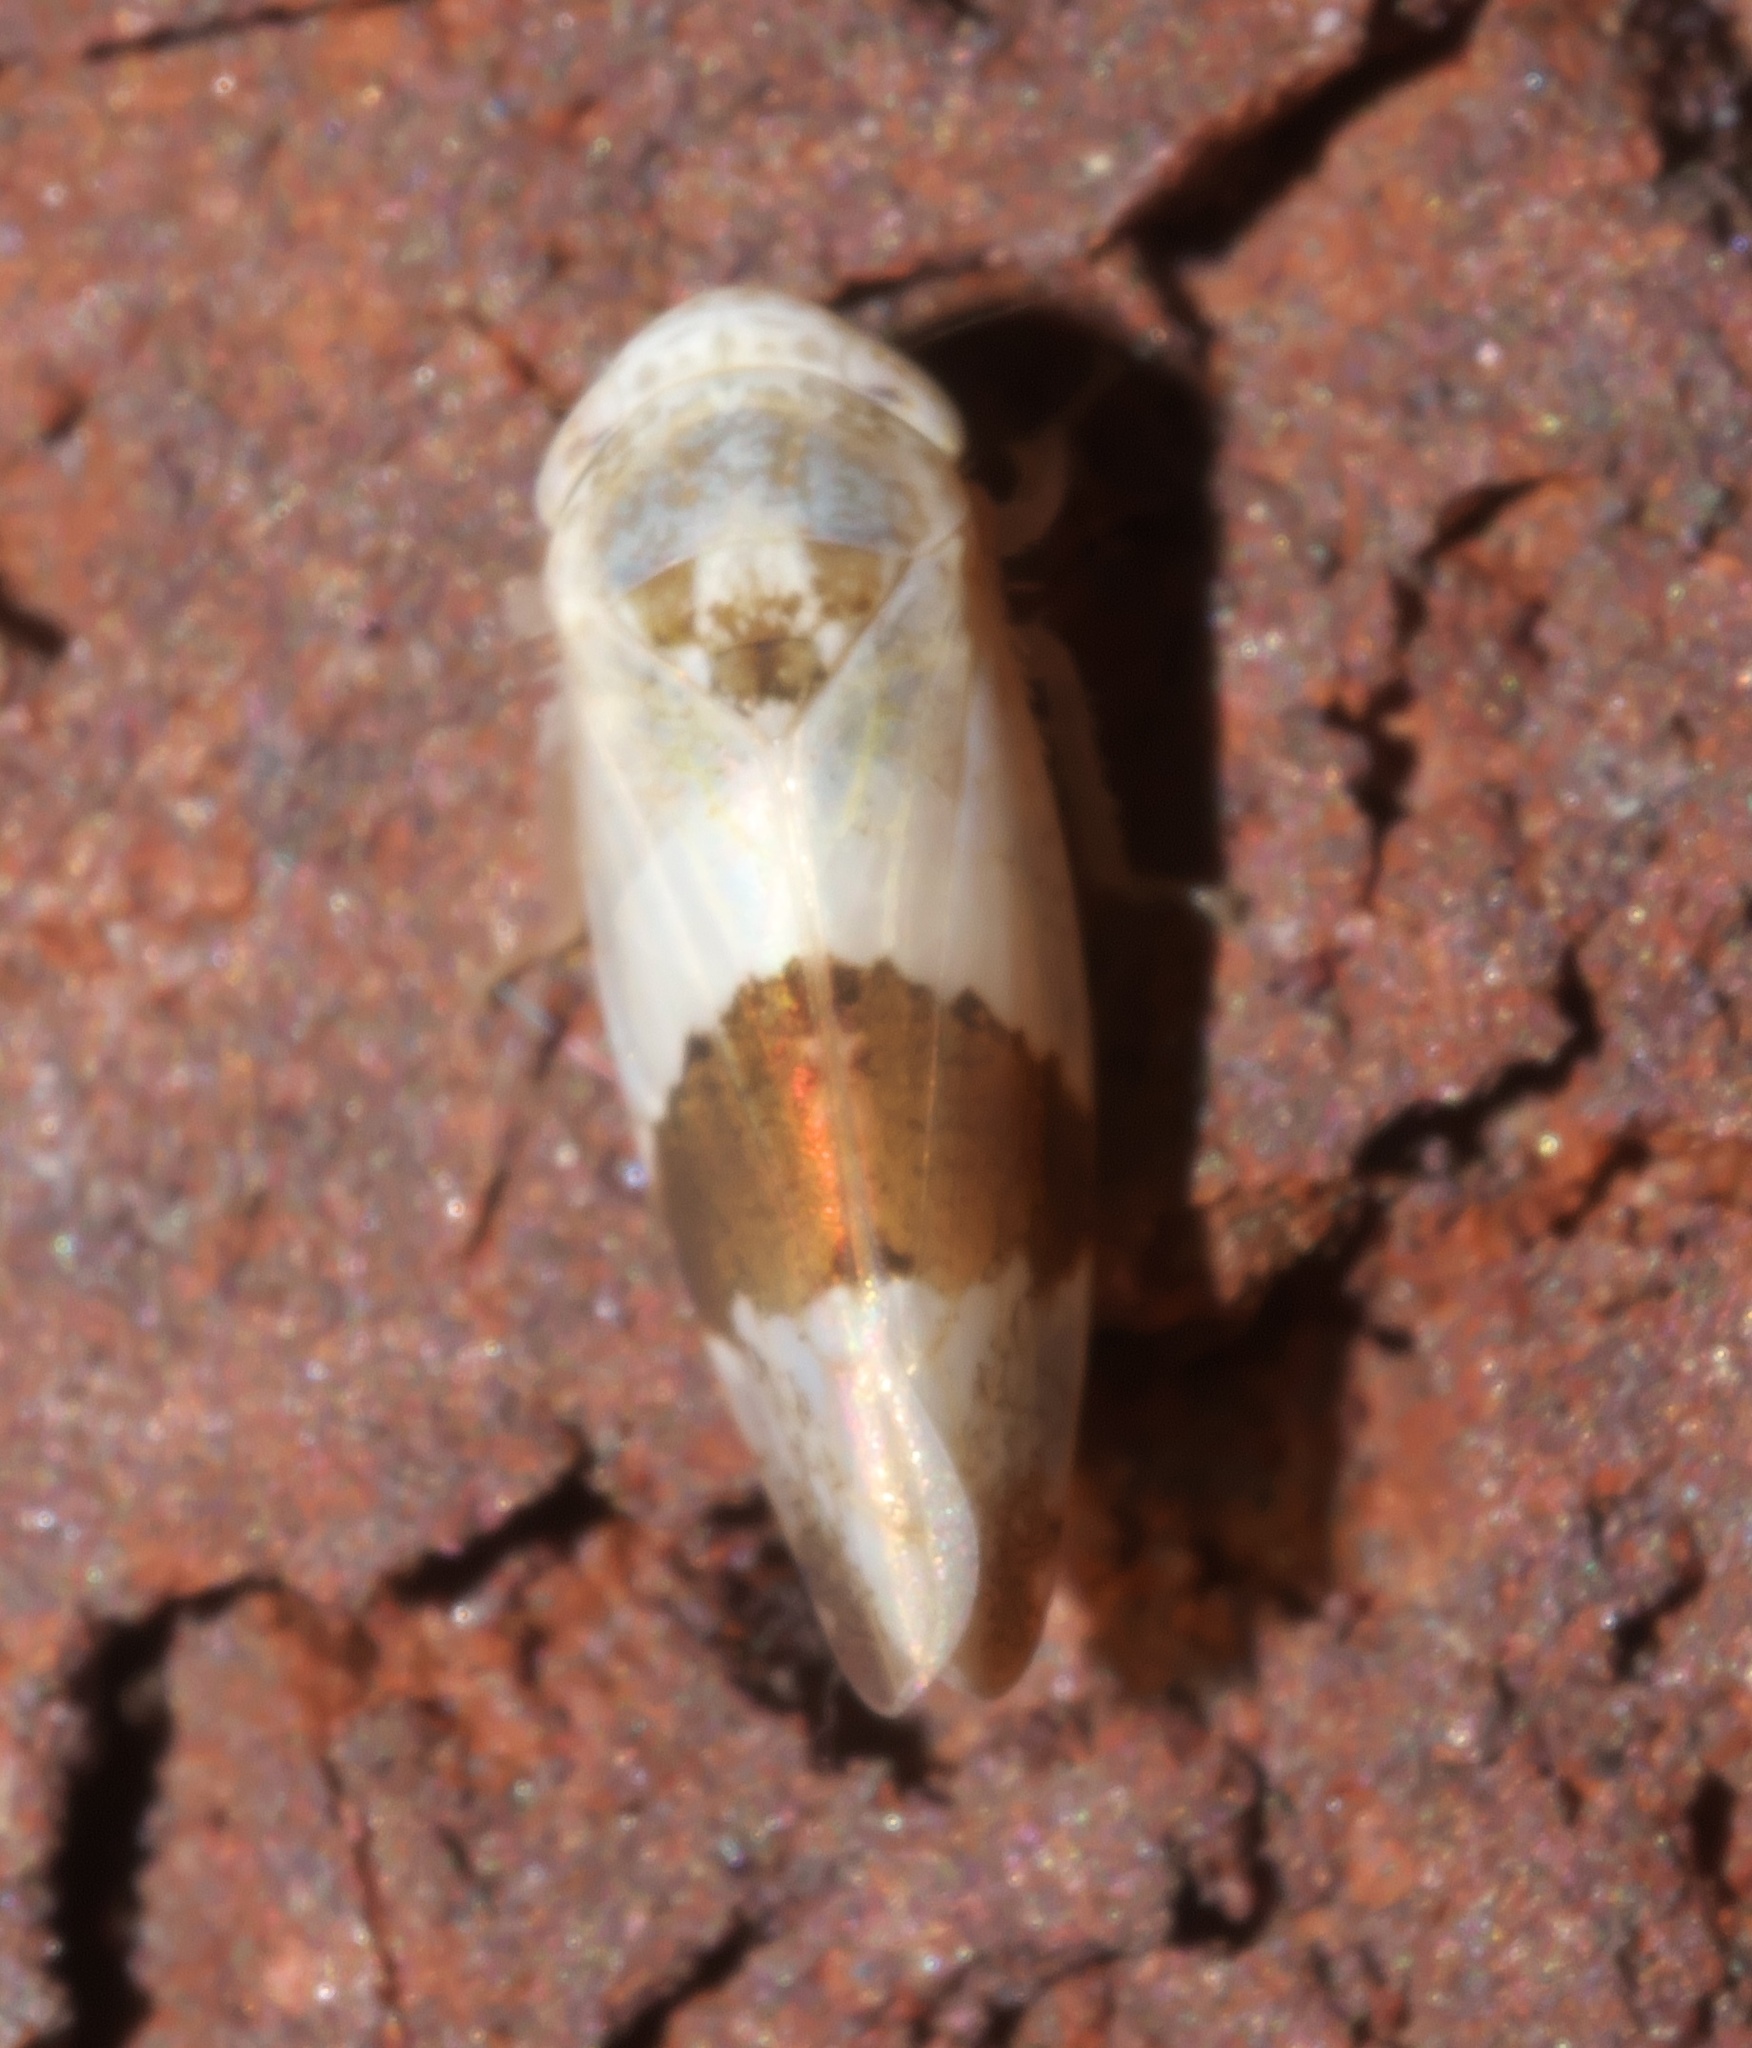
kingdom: Animalia
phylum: Arthropoda
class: Insecta
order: Hemiptera
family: Cicadellidae
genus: Norvellina
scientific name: Norvellina seminuda
